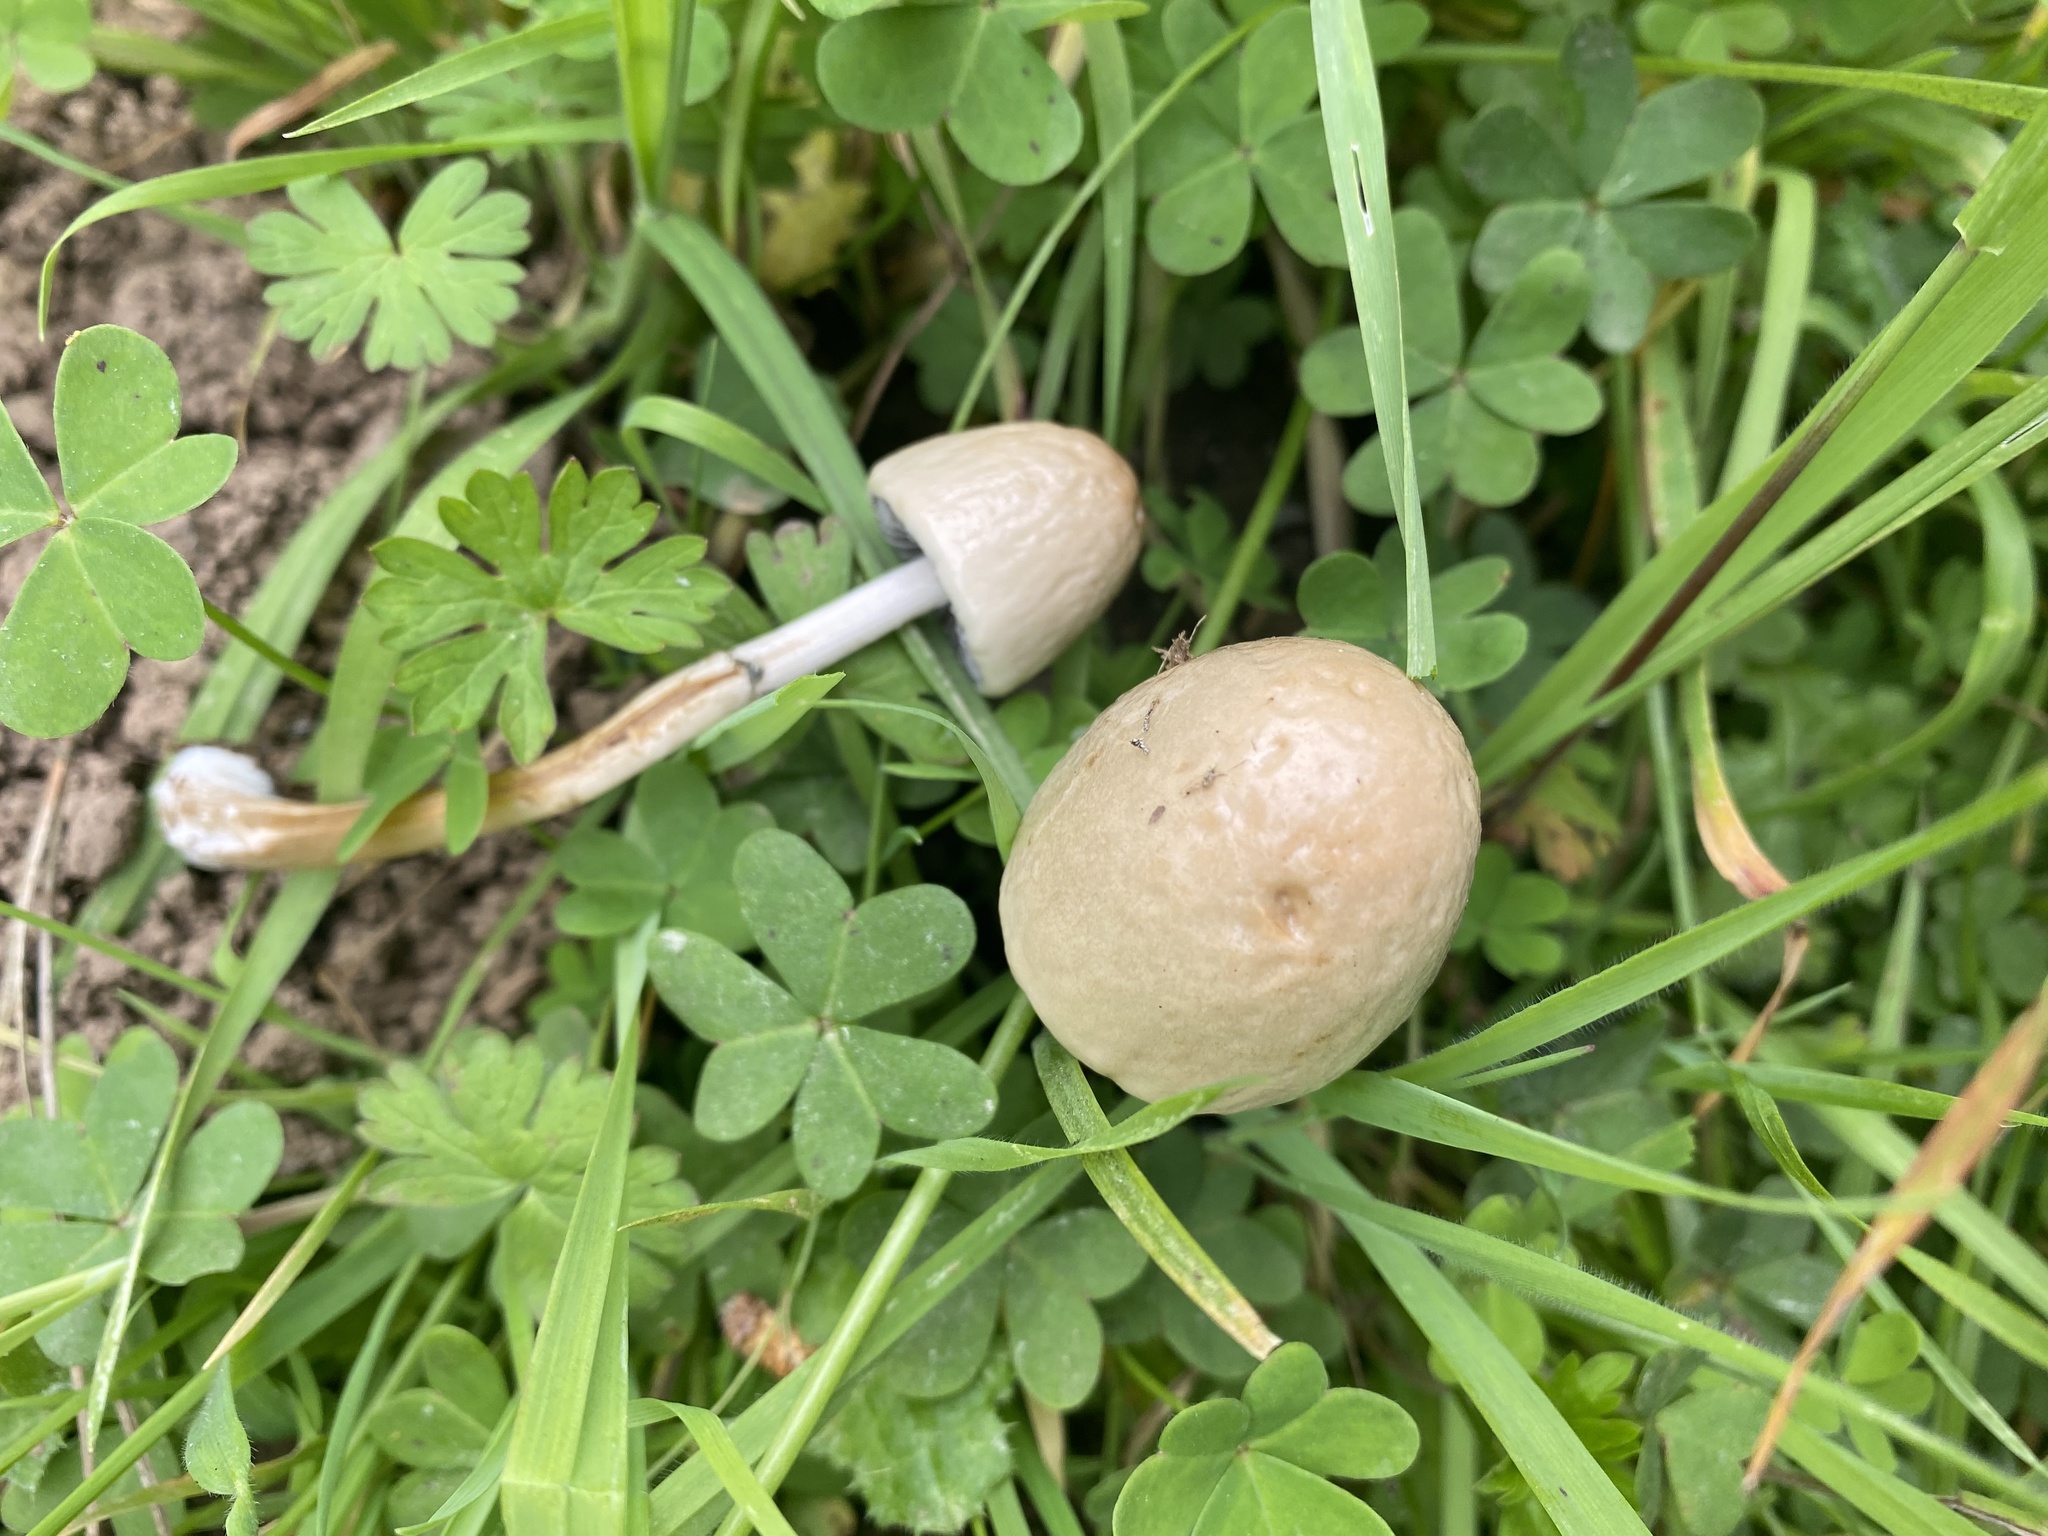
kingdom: Fungi
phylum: Basidiomycota
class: Agaricomycetes
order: Agaricales
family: Bolbitiaceae
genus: Panaeolus
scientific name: Panaeolus semiovatus
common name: Shiny mottlegill
